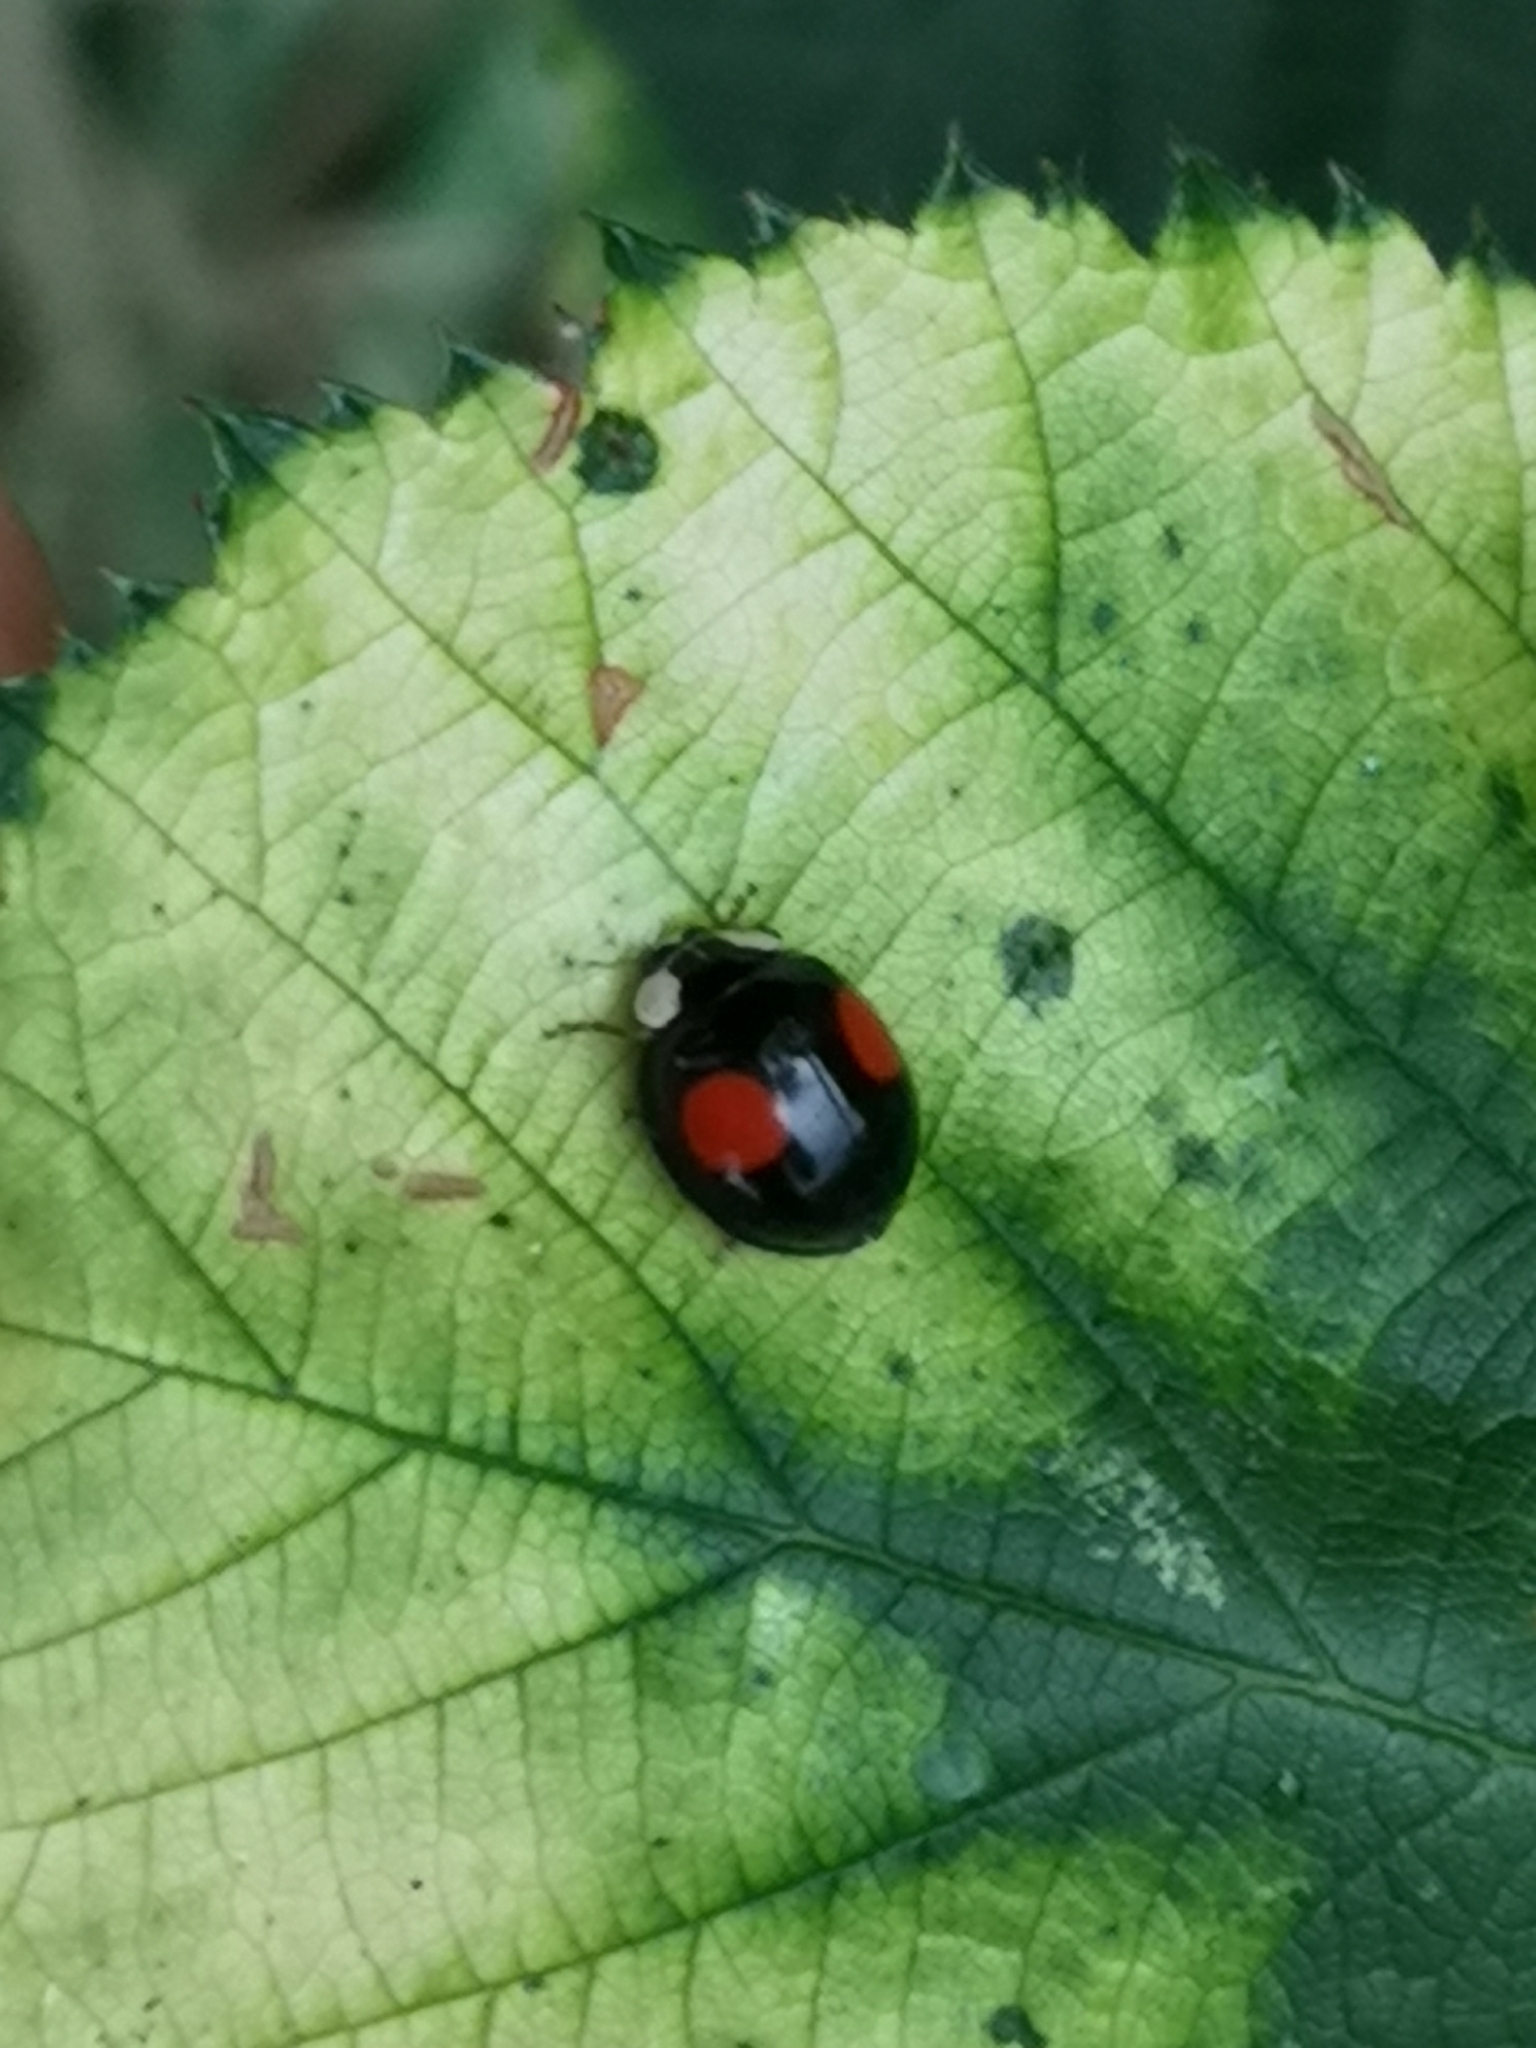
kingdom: Animalia
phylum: Arthropoda
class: Insecta
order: Coleoptera
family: Coccinellidae
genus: Harmonia
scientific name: Harmonia axyridis
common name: Harlequin ladybird
